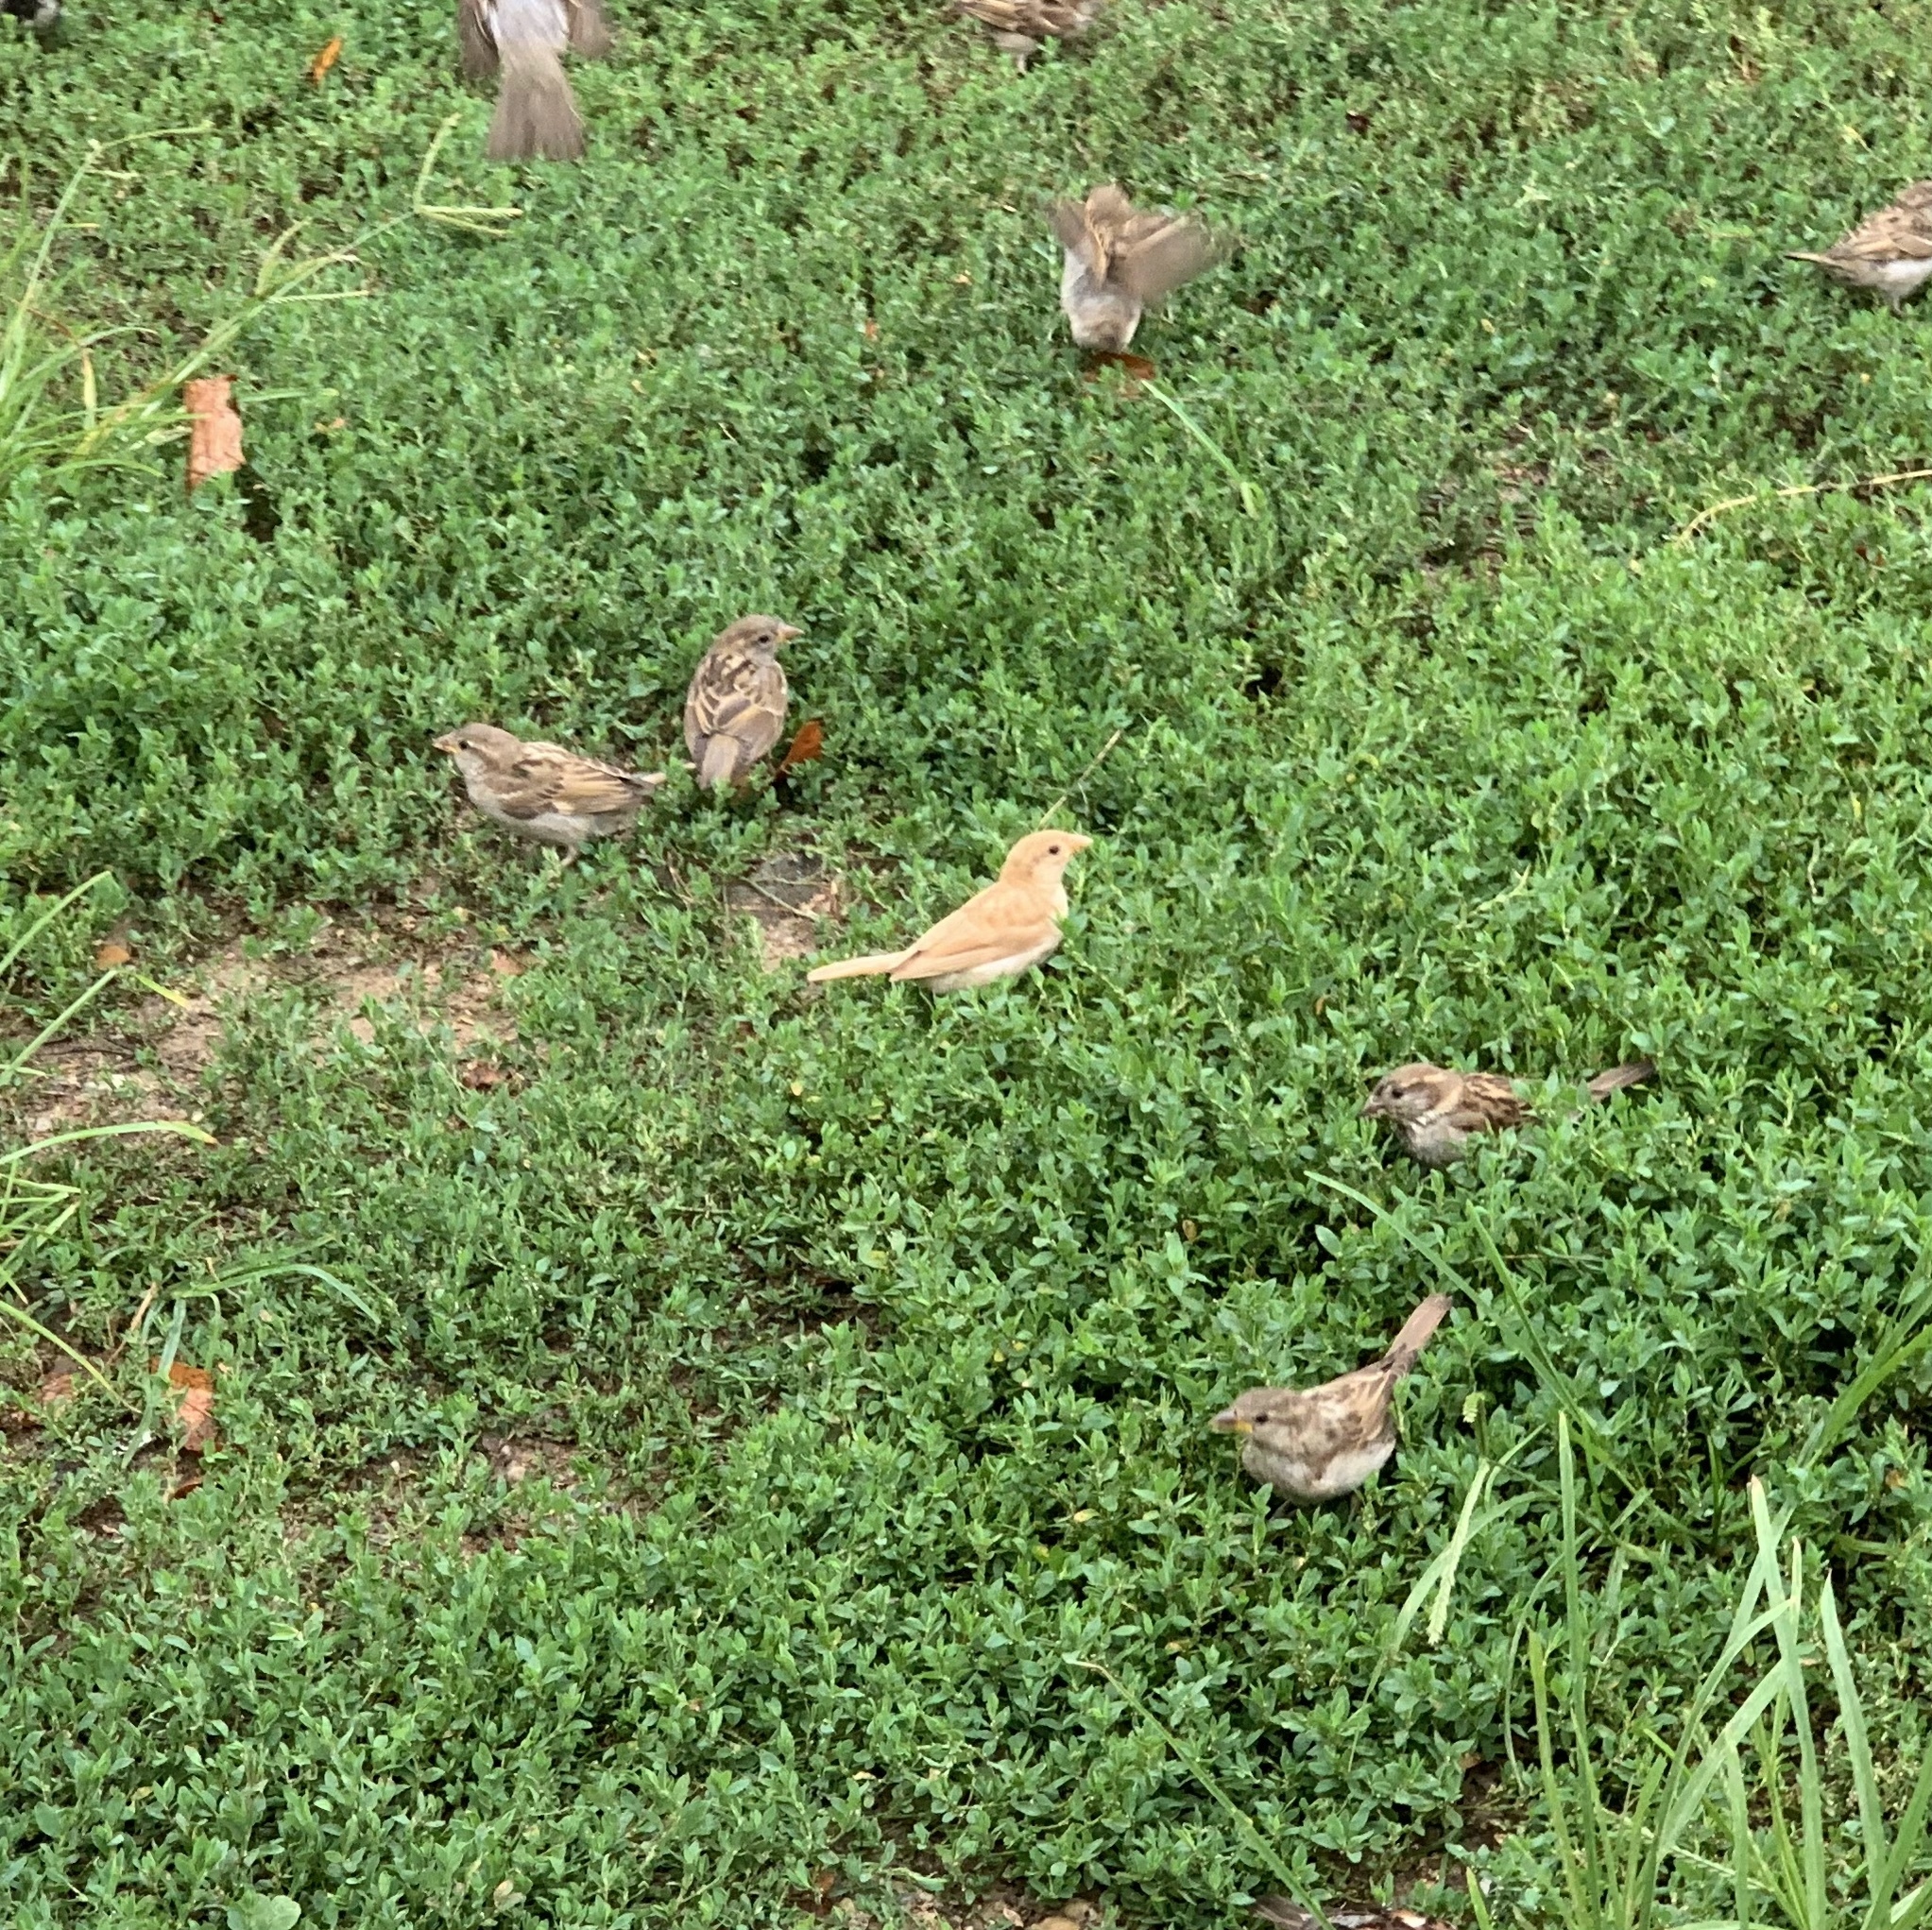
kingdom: Animalia
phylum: Chordata
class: Aves
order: Passeriformes
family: Passeridae
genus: Passer
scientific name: Passer domesticus
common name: House sparrow
